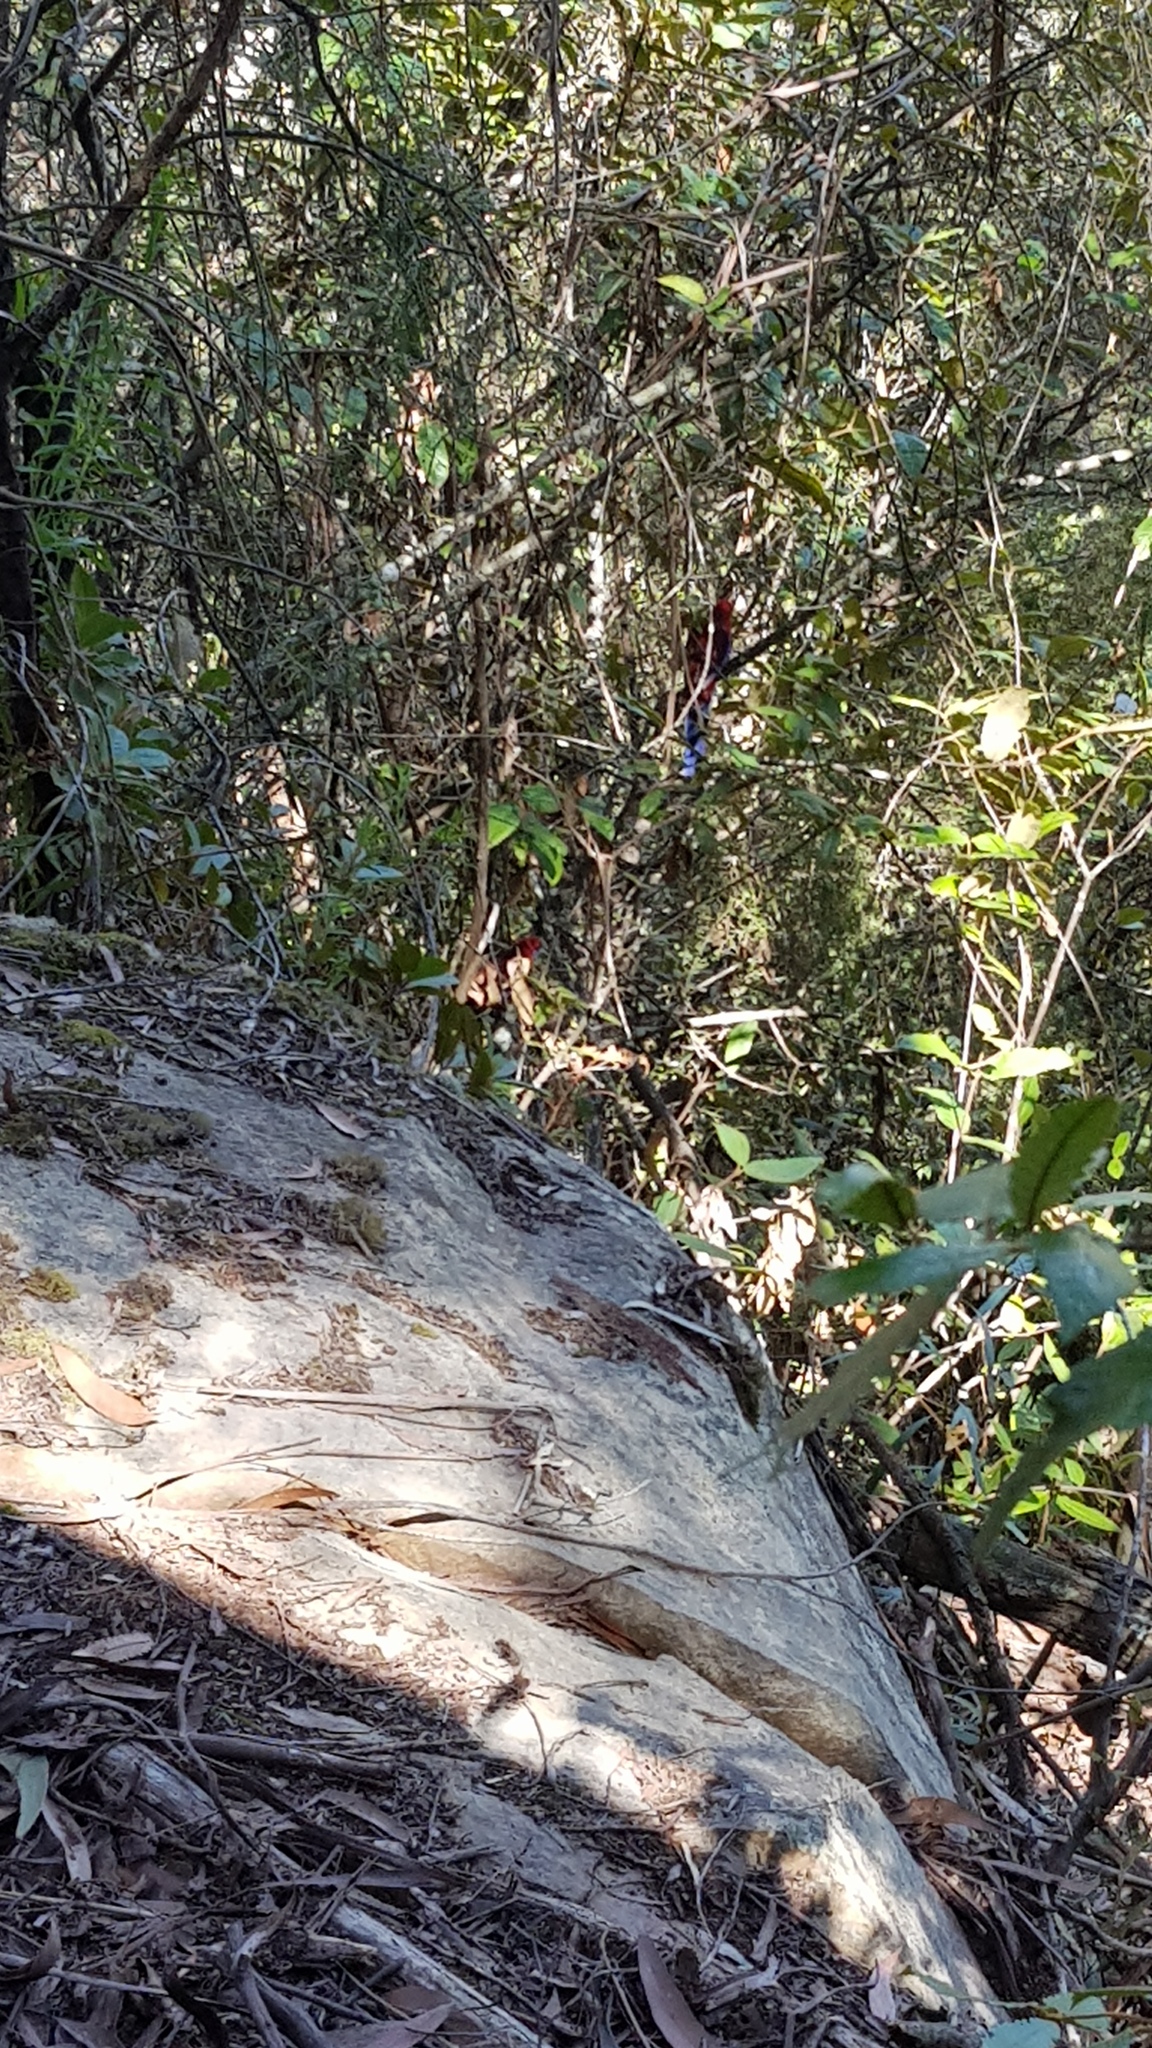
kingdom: Animalia
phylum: Chordata
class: Aves
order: Psittaciformes
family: Psittacidae
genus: Platycercus
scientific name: Platycercus elegans
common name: Crimson rosella
